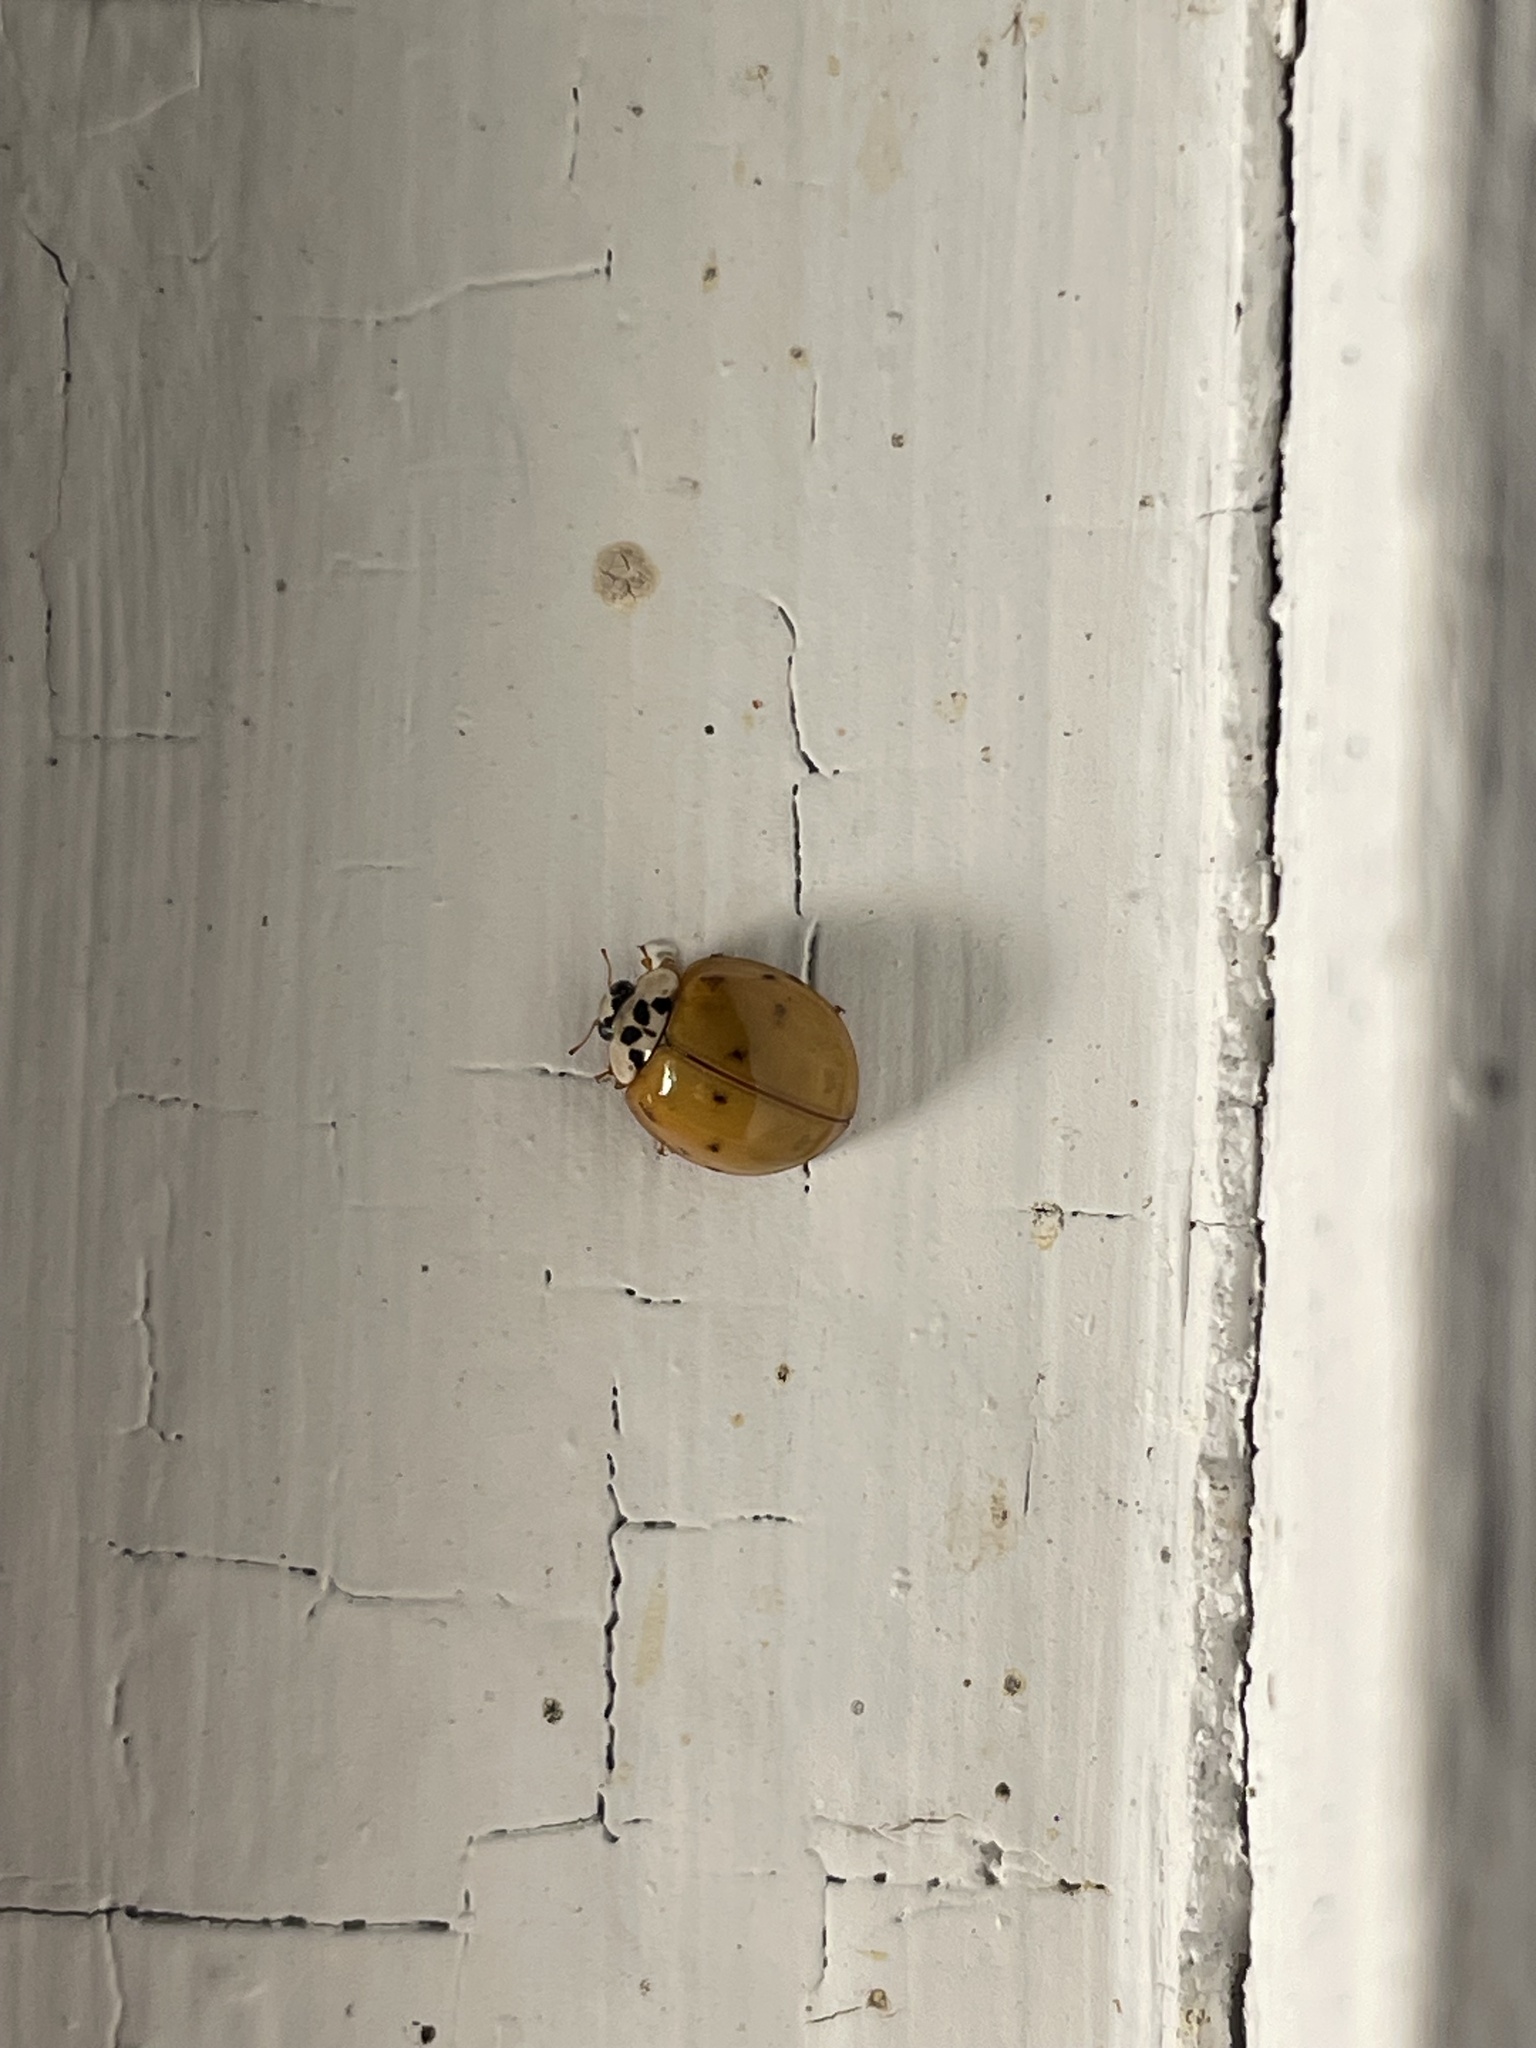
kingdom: Animalia
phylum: Arthropoda
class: Insecta
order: Coleoptera
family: Coccinellidae
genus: Harmonia
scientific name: Harmonia axyridis
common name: Harlequin ladybird
